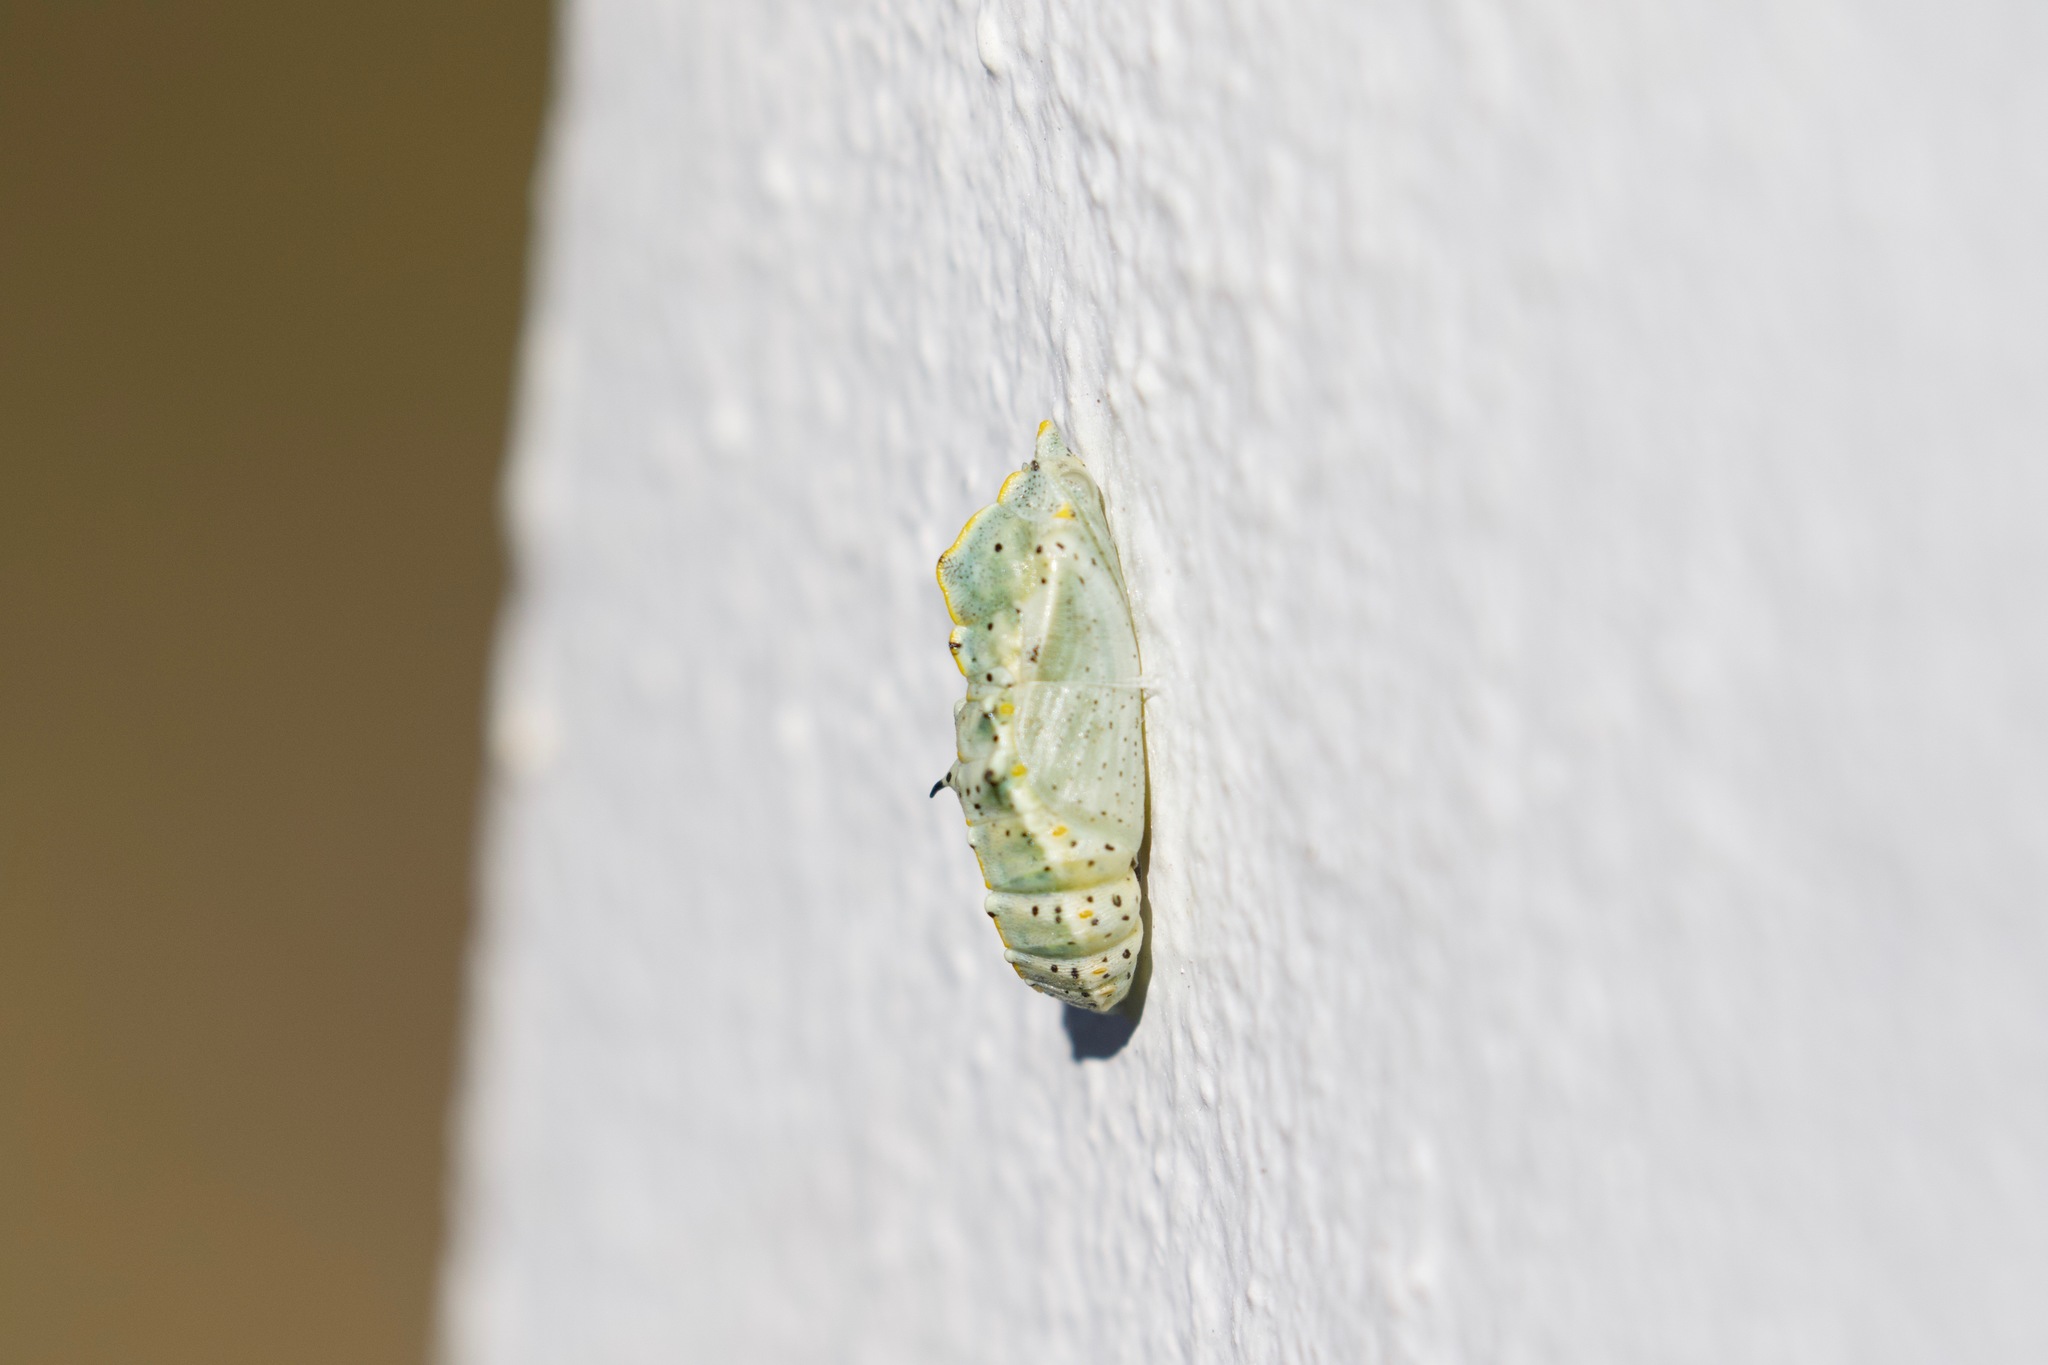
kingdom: Animalia
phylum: Arthropoda
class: Insecta
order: Lepidoptera
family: Pieridae
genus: Pieris
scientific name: Pieris brassicae
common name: Large white
